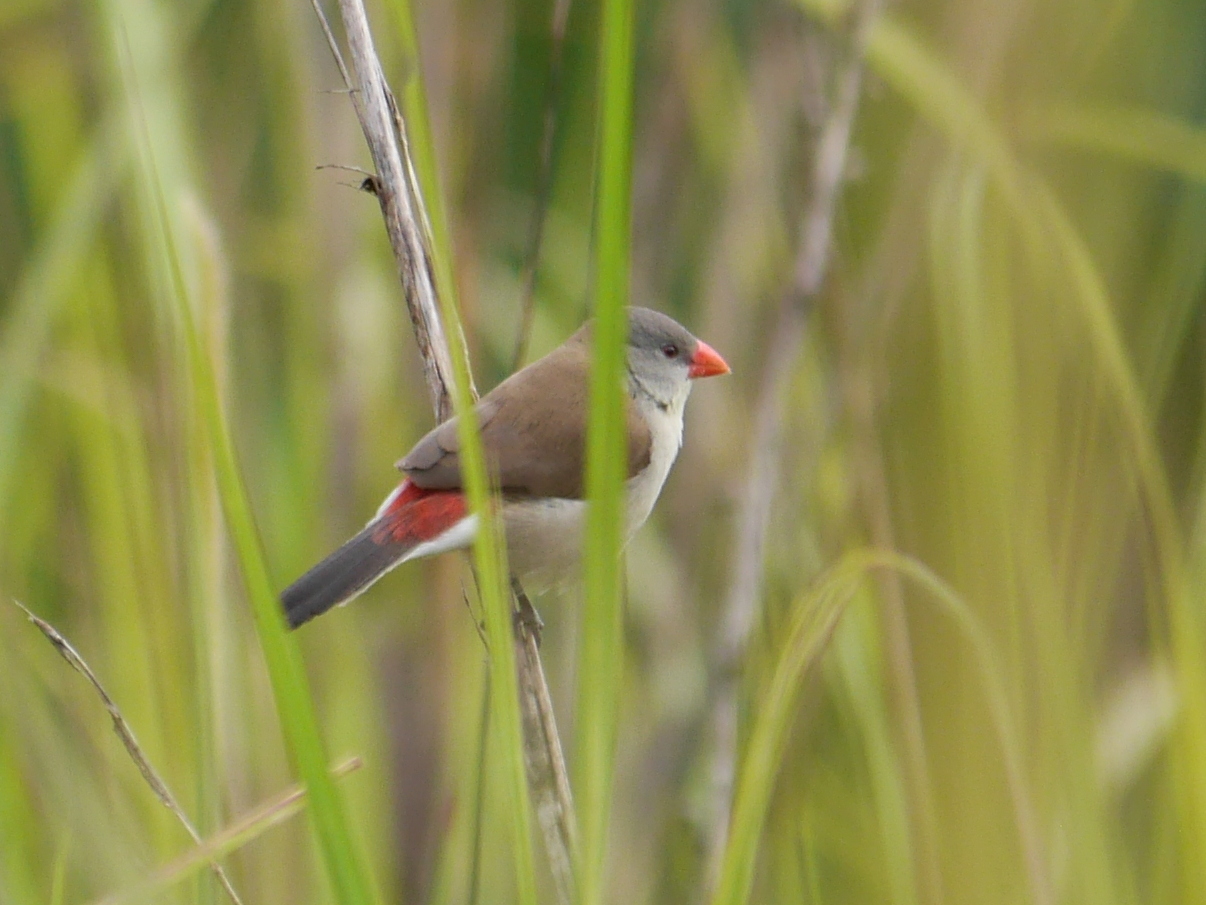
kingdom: Animalia
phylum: Chordata
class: Aves
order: Passeriformes
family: Estrildidae
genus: Estrilda
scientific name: Estrilda paludicola
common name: Fawn-breasted waxbill
